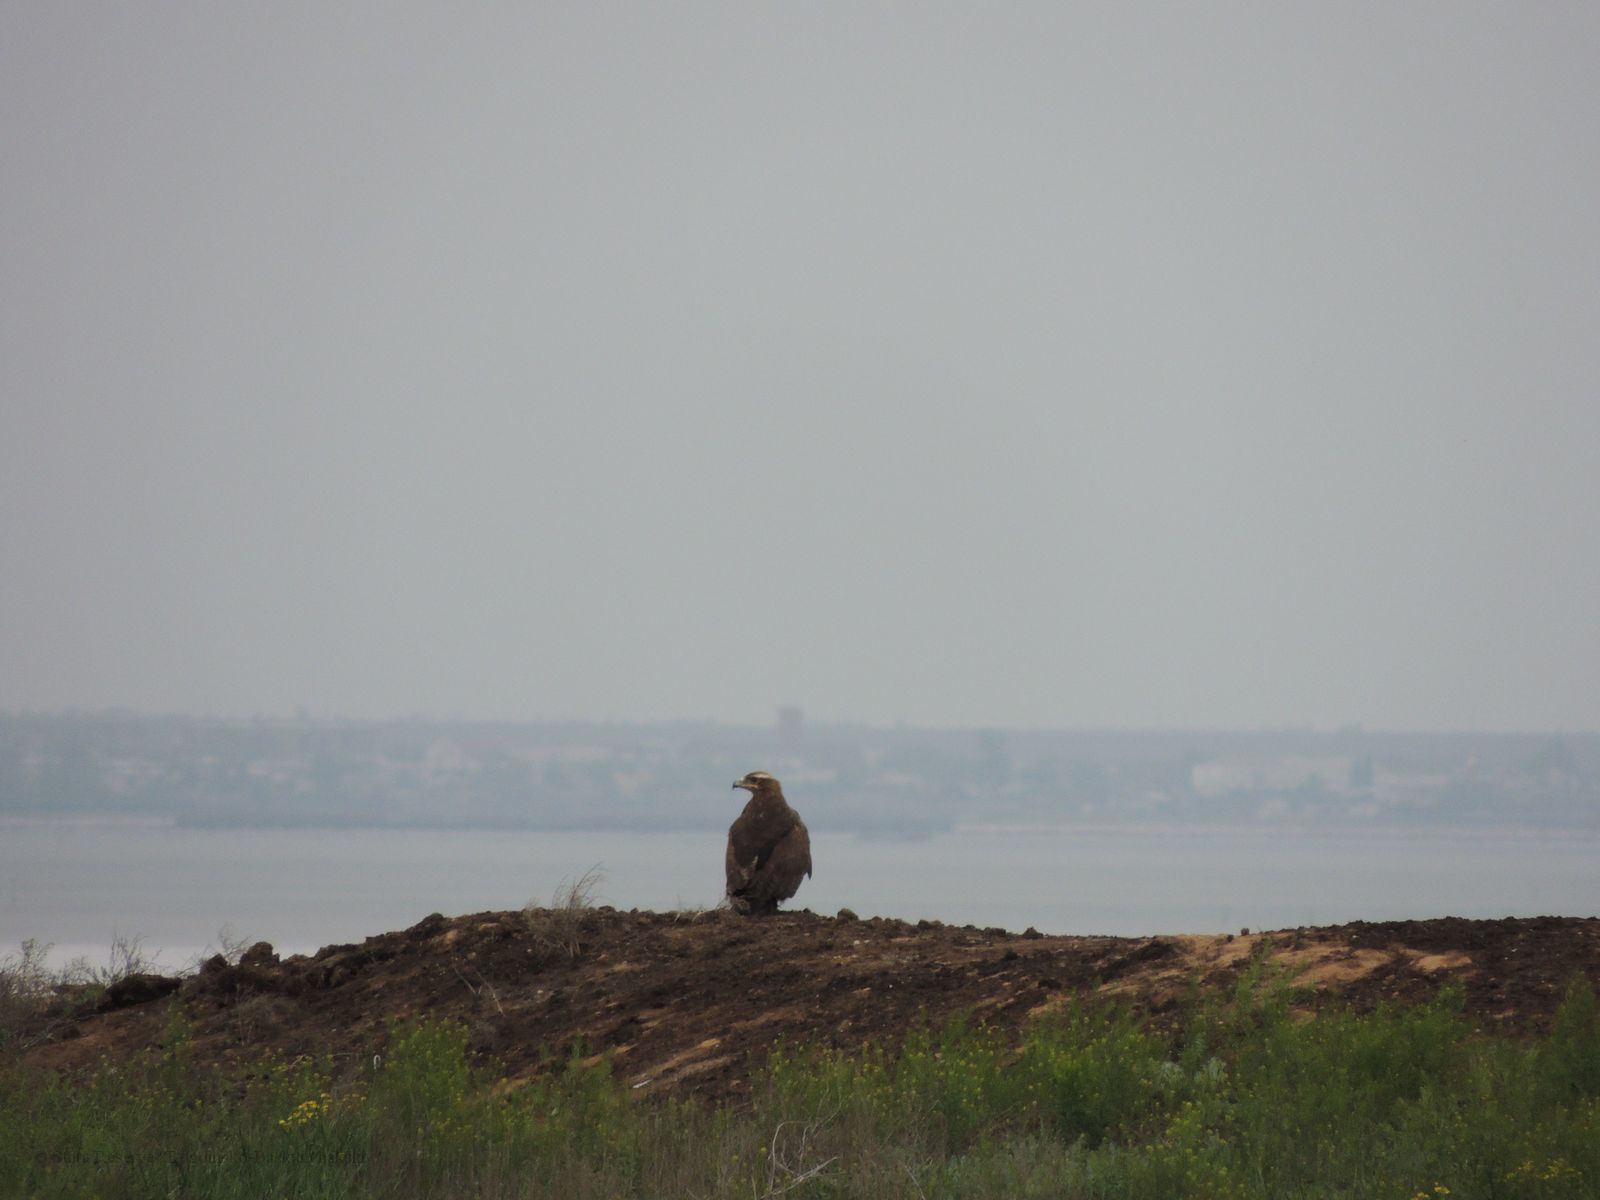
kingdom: Animalia
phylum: Chordata
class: Aves
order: Accipitriformes
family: Accipitridae
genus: Aquila
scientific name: Aquila nipalensis
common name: Steppe eagle
